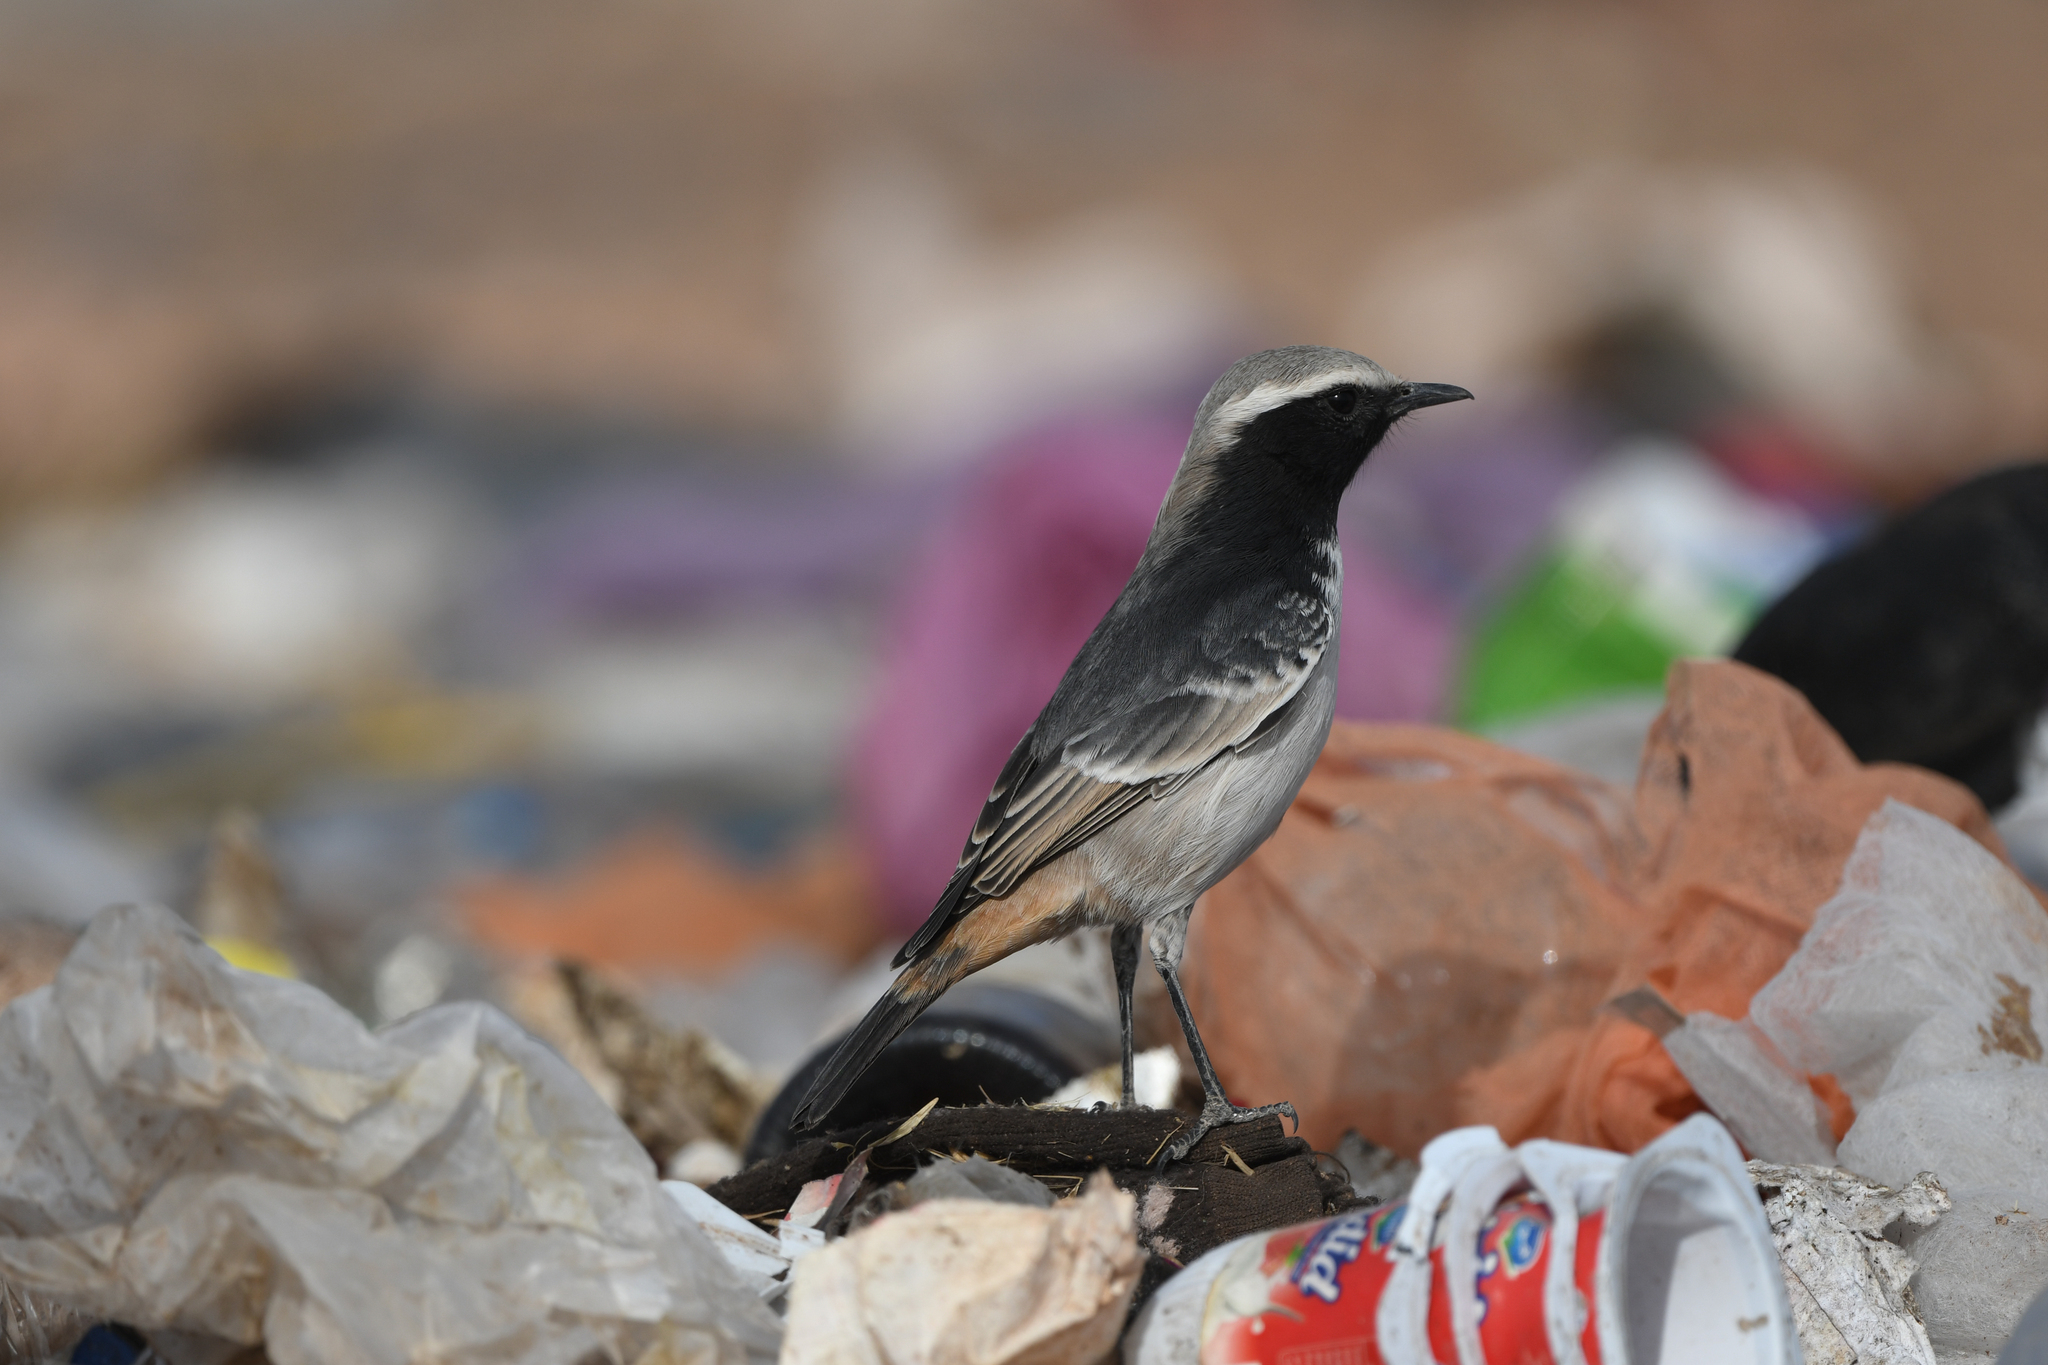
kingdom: Animalia
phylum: Chordata
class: Aves
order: Passeriformes
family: Muscicapidae
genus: Oenanthe
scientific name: Oenanthe moesta
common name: Red-rumped wheatear
